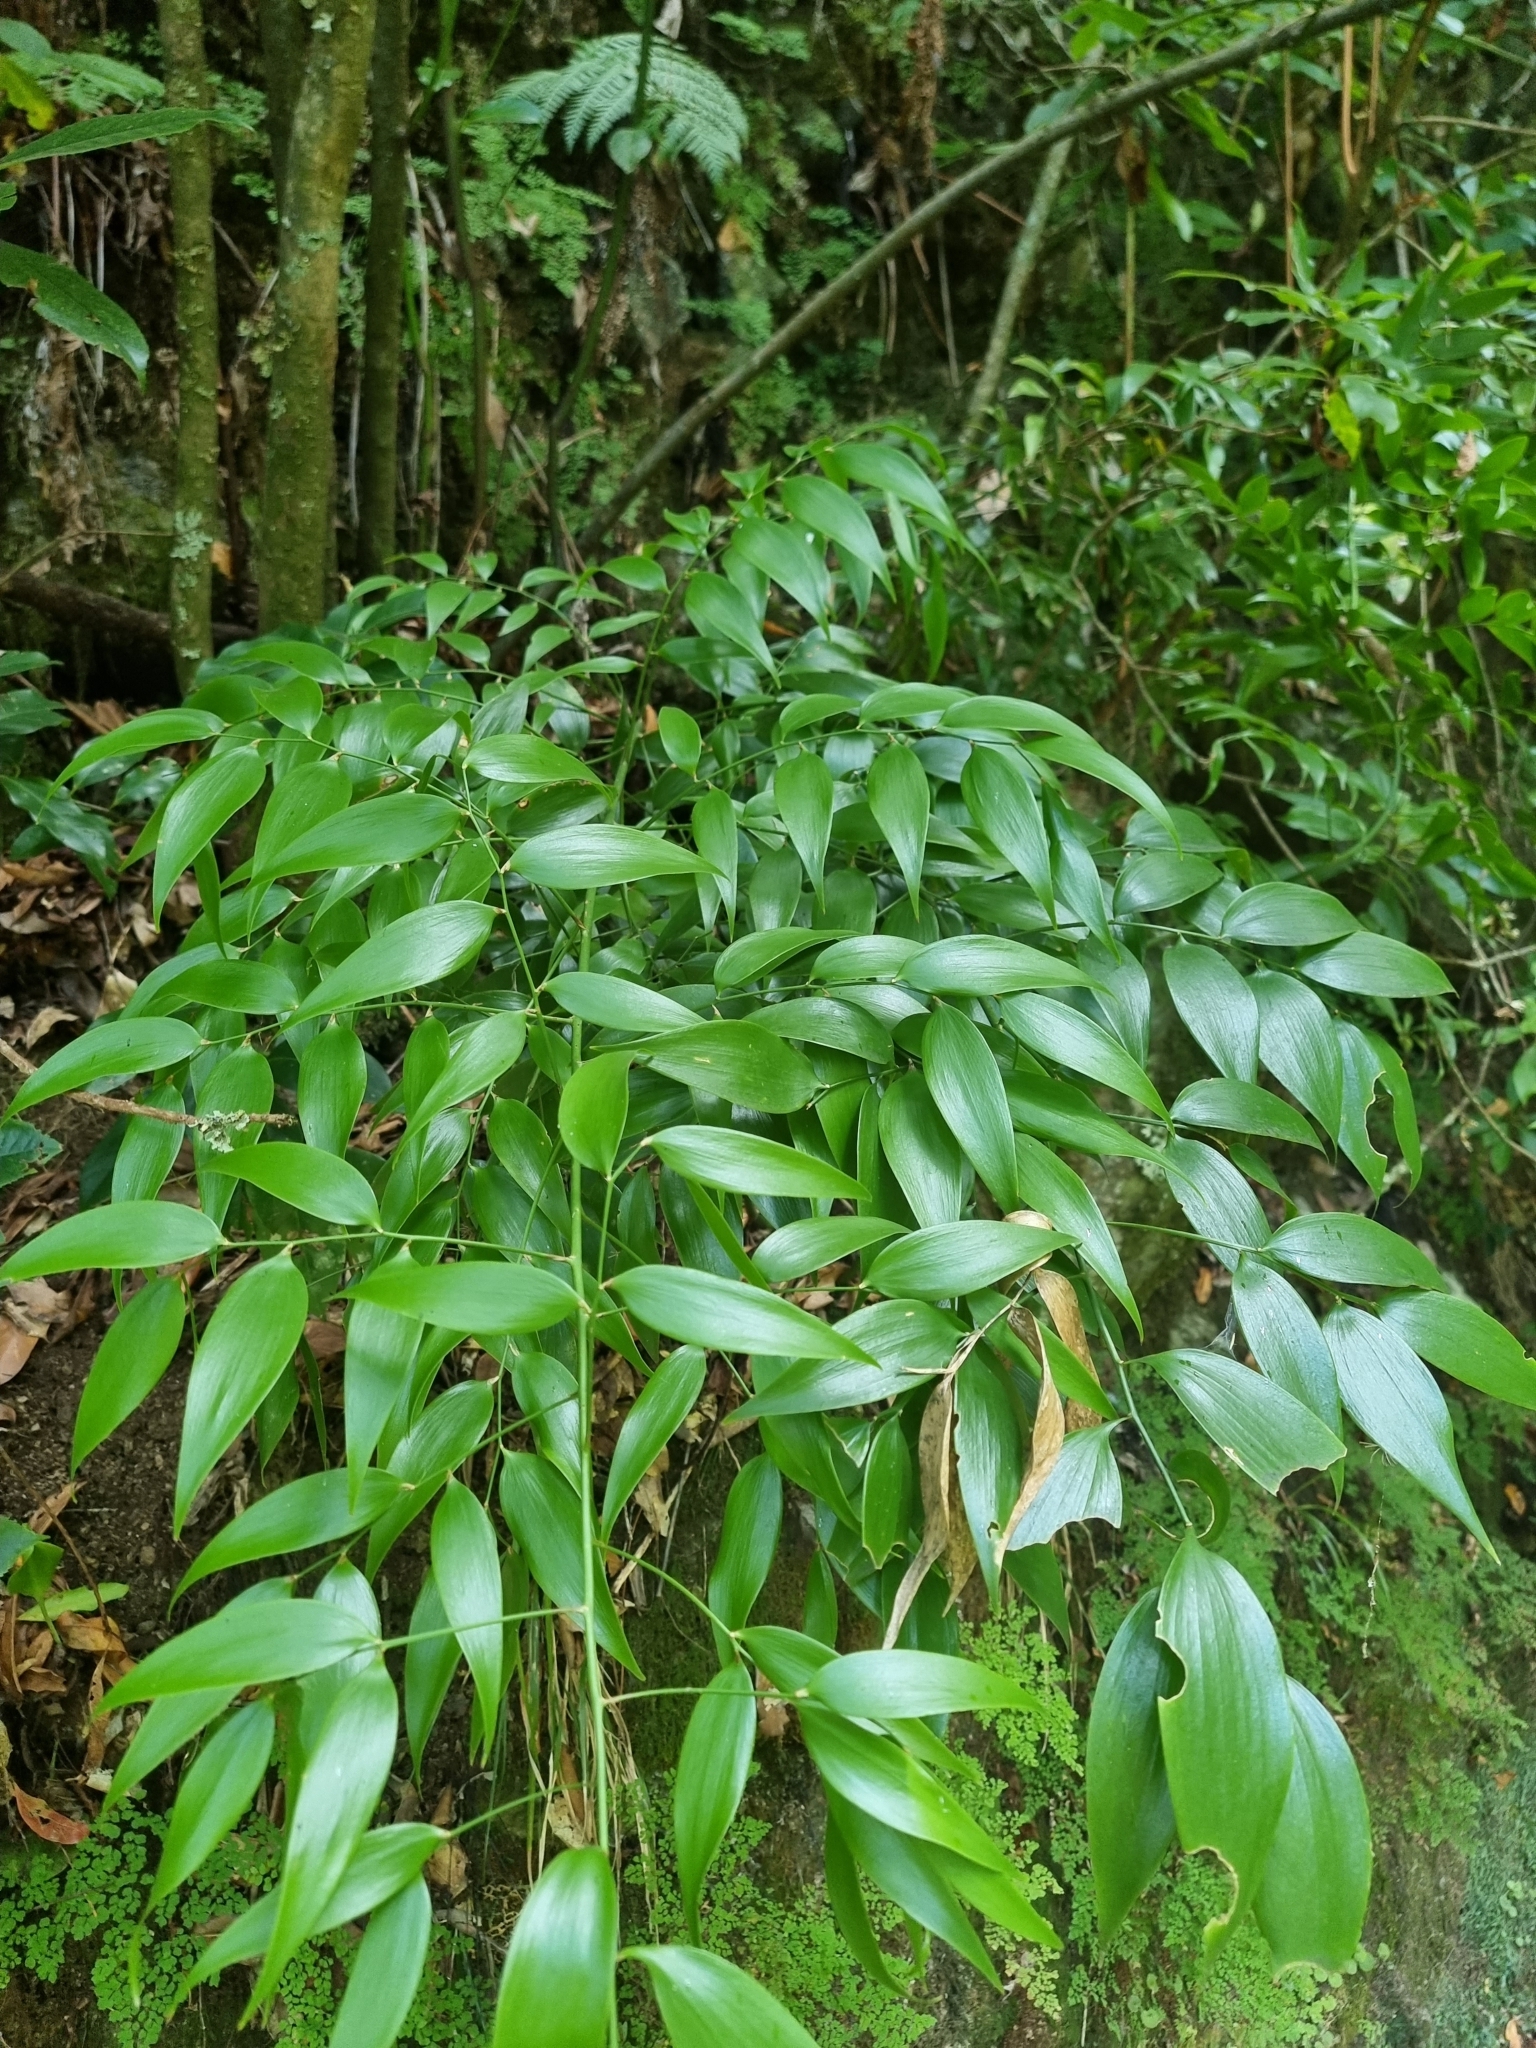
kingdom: Plantae
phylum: Tracheophyta
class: Liliopsida
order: Asparagales
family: Asparagaceae
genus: Semele
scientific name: Semele androgyna
